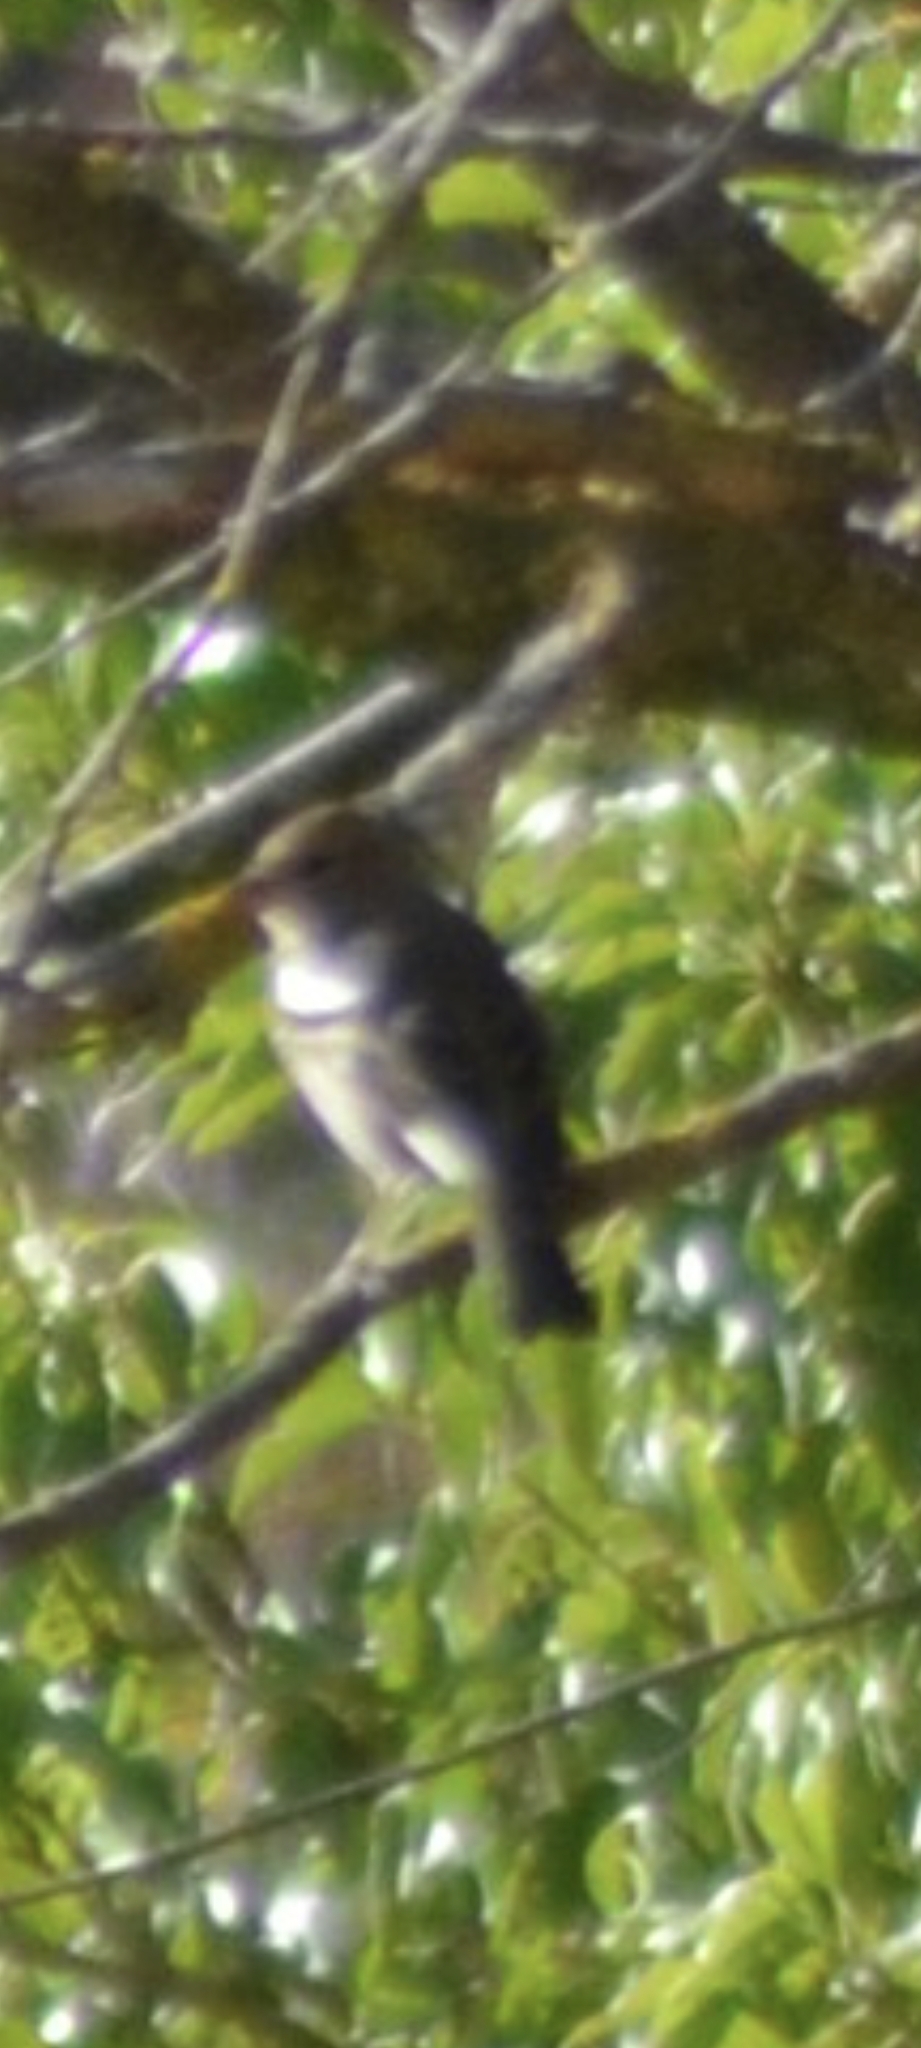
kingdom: Animalia
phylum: Chordata
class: Aves
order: Passeriformes
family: Fringillidae
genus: Fringilla
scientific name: Fringilla coelebs
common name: Common chaffinch
